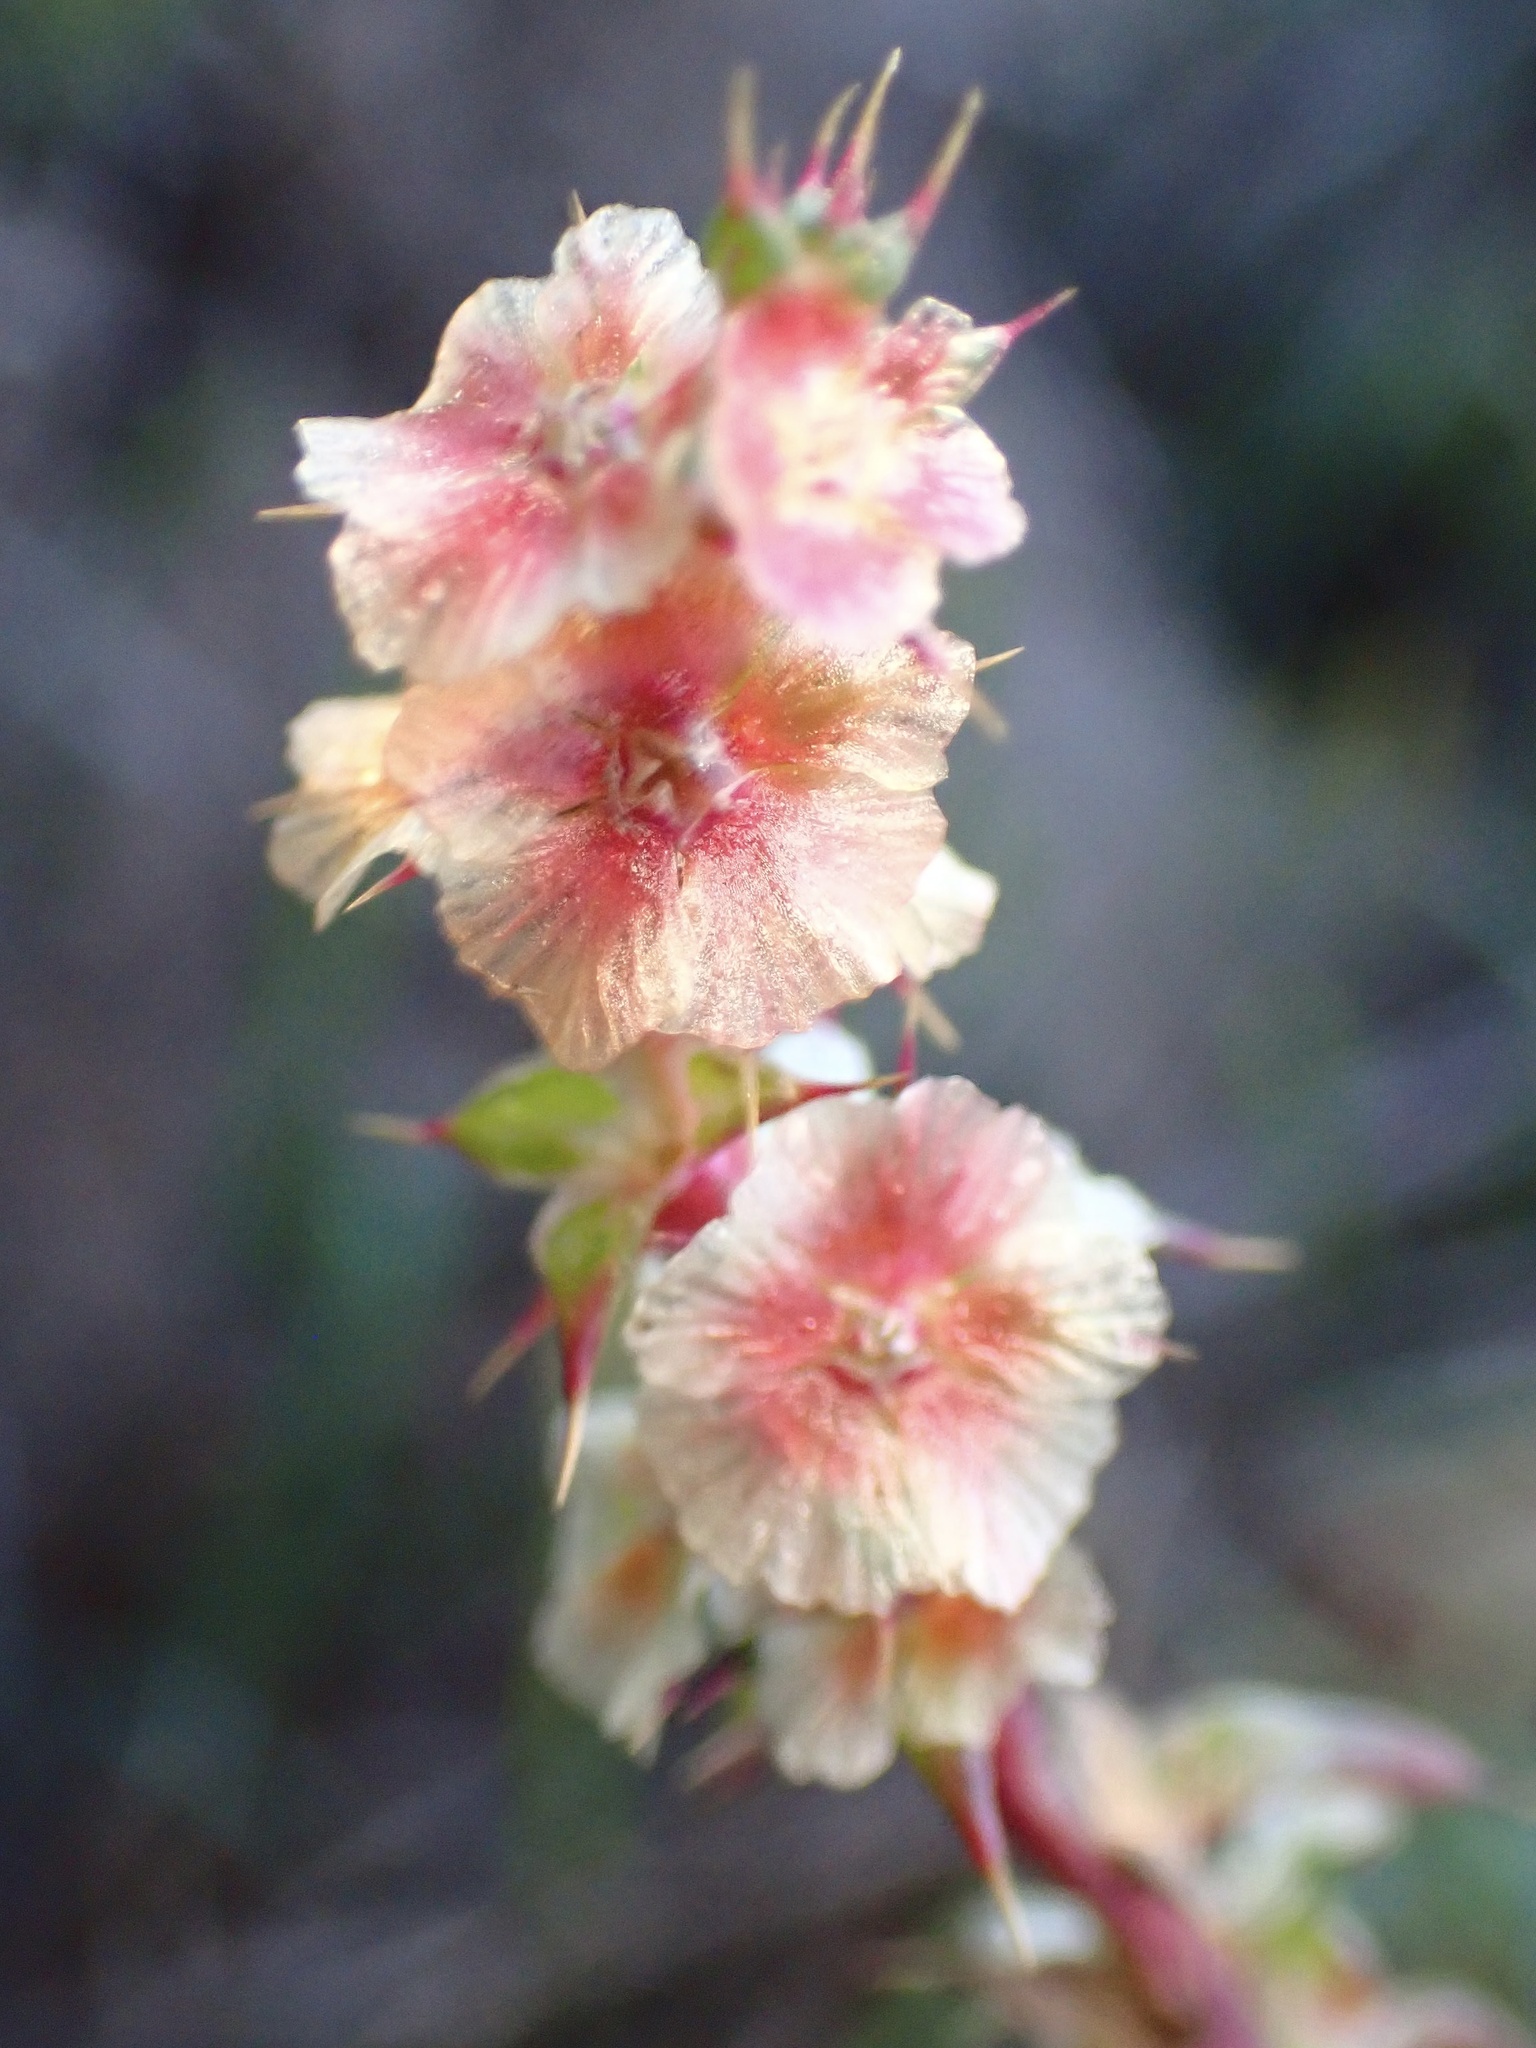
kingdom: Plantae
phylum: Tracheophyta
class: Magnoliopsida
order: Caryophyllales
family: Amaranthaceae
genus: Salsola
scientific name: Salsola australis
